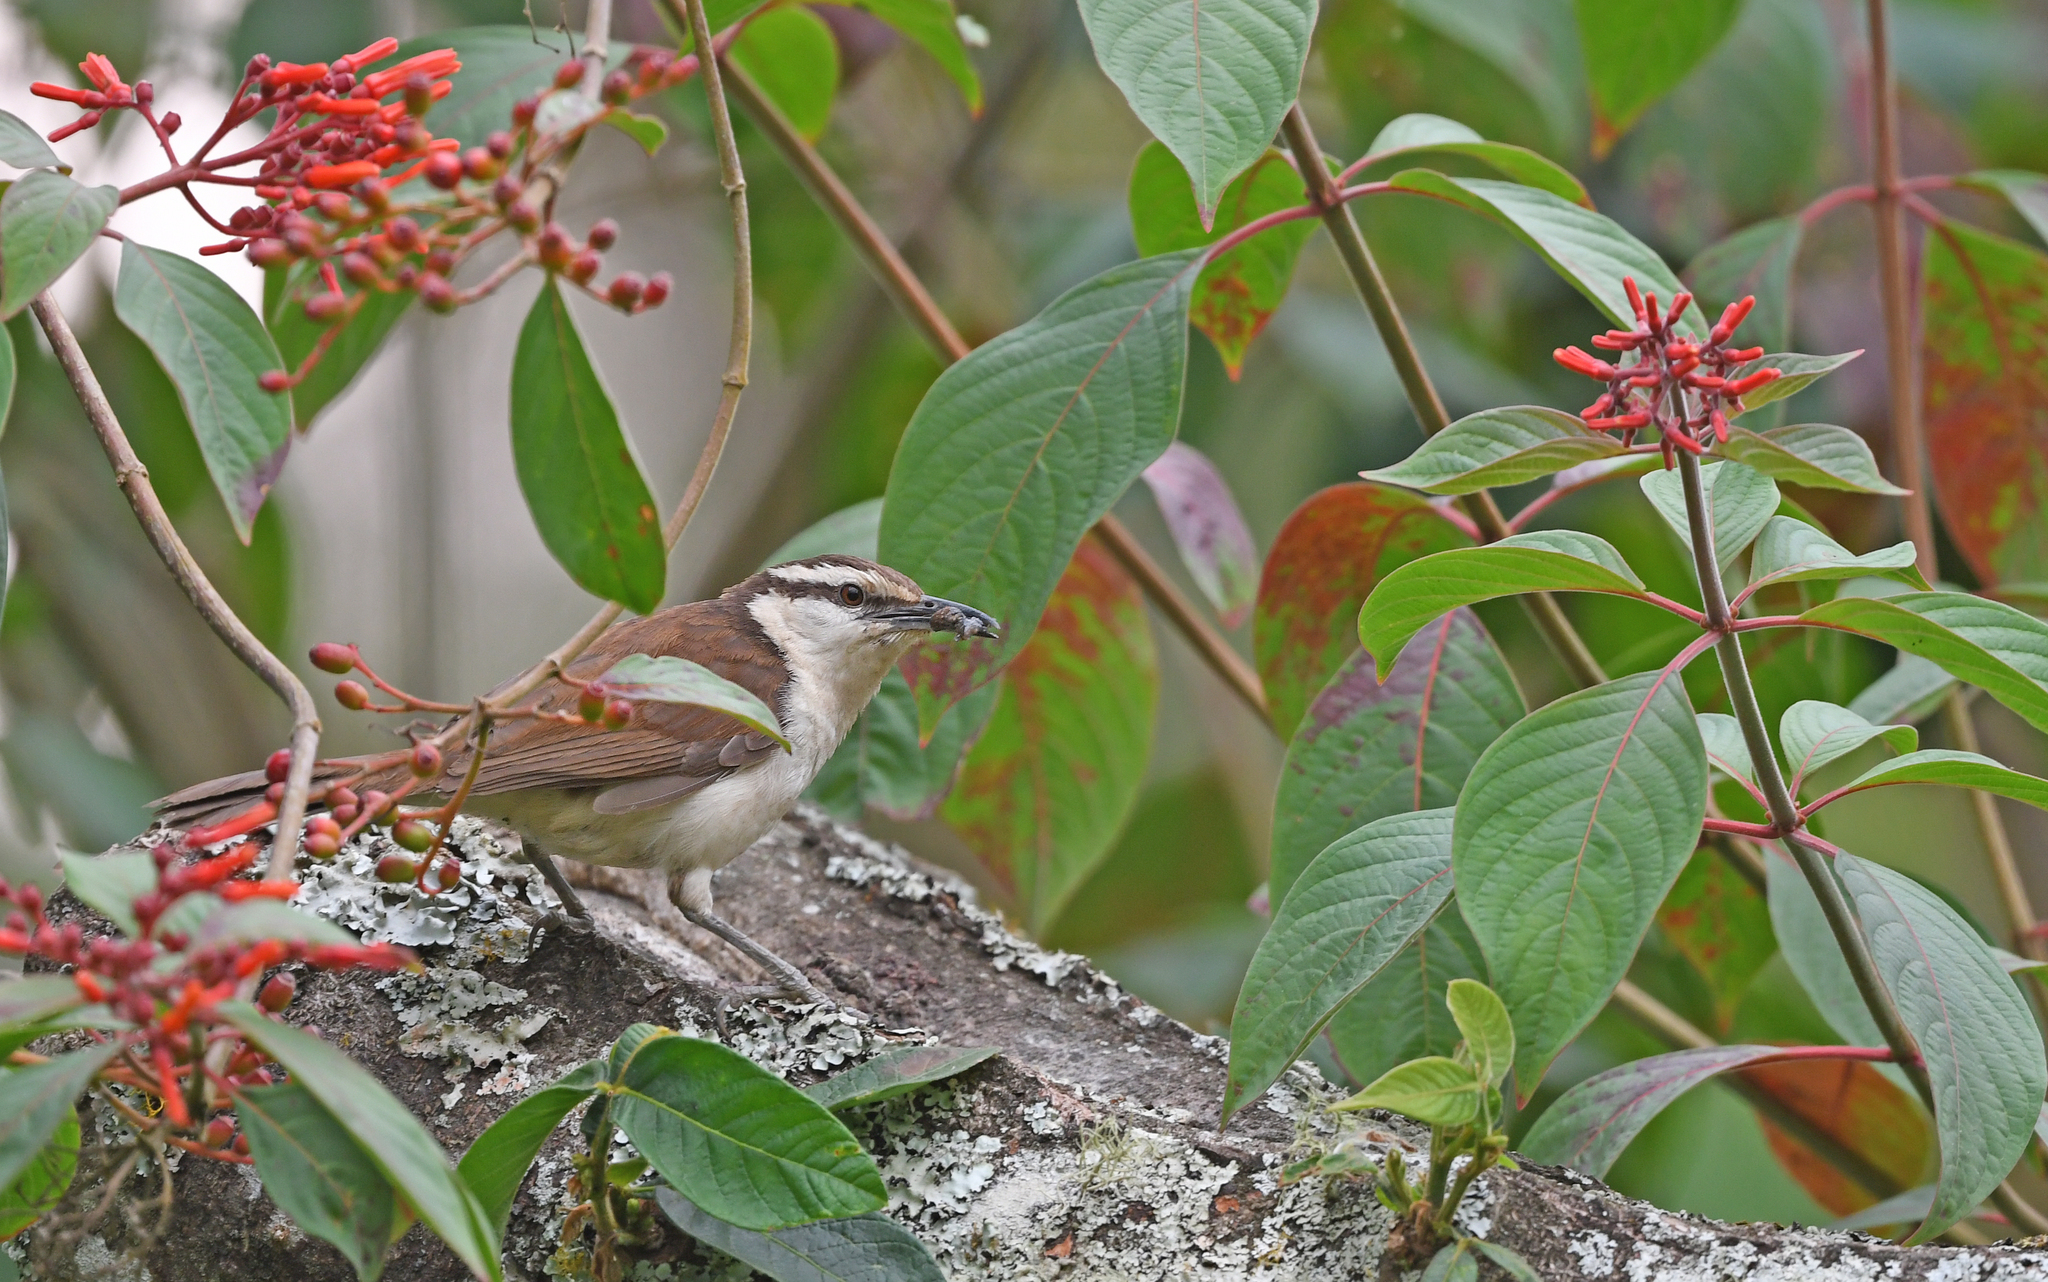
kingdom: Animalia
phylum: Chordata
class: Aves
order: Passeriformes
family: Troglodytidae
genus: Campylorhynchus
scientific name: Campylorhynchus griseus
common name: Bicolored wren
